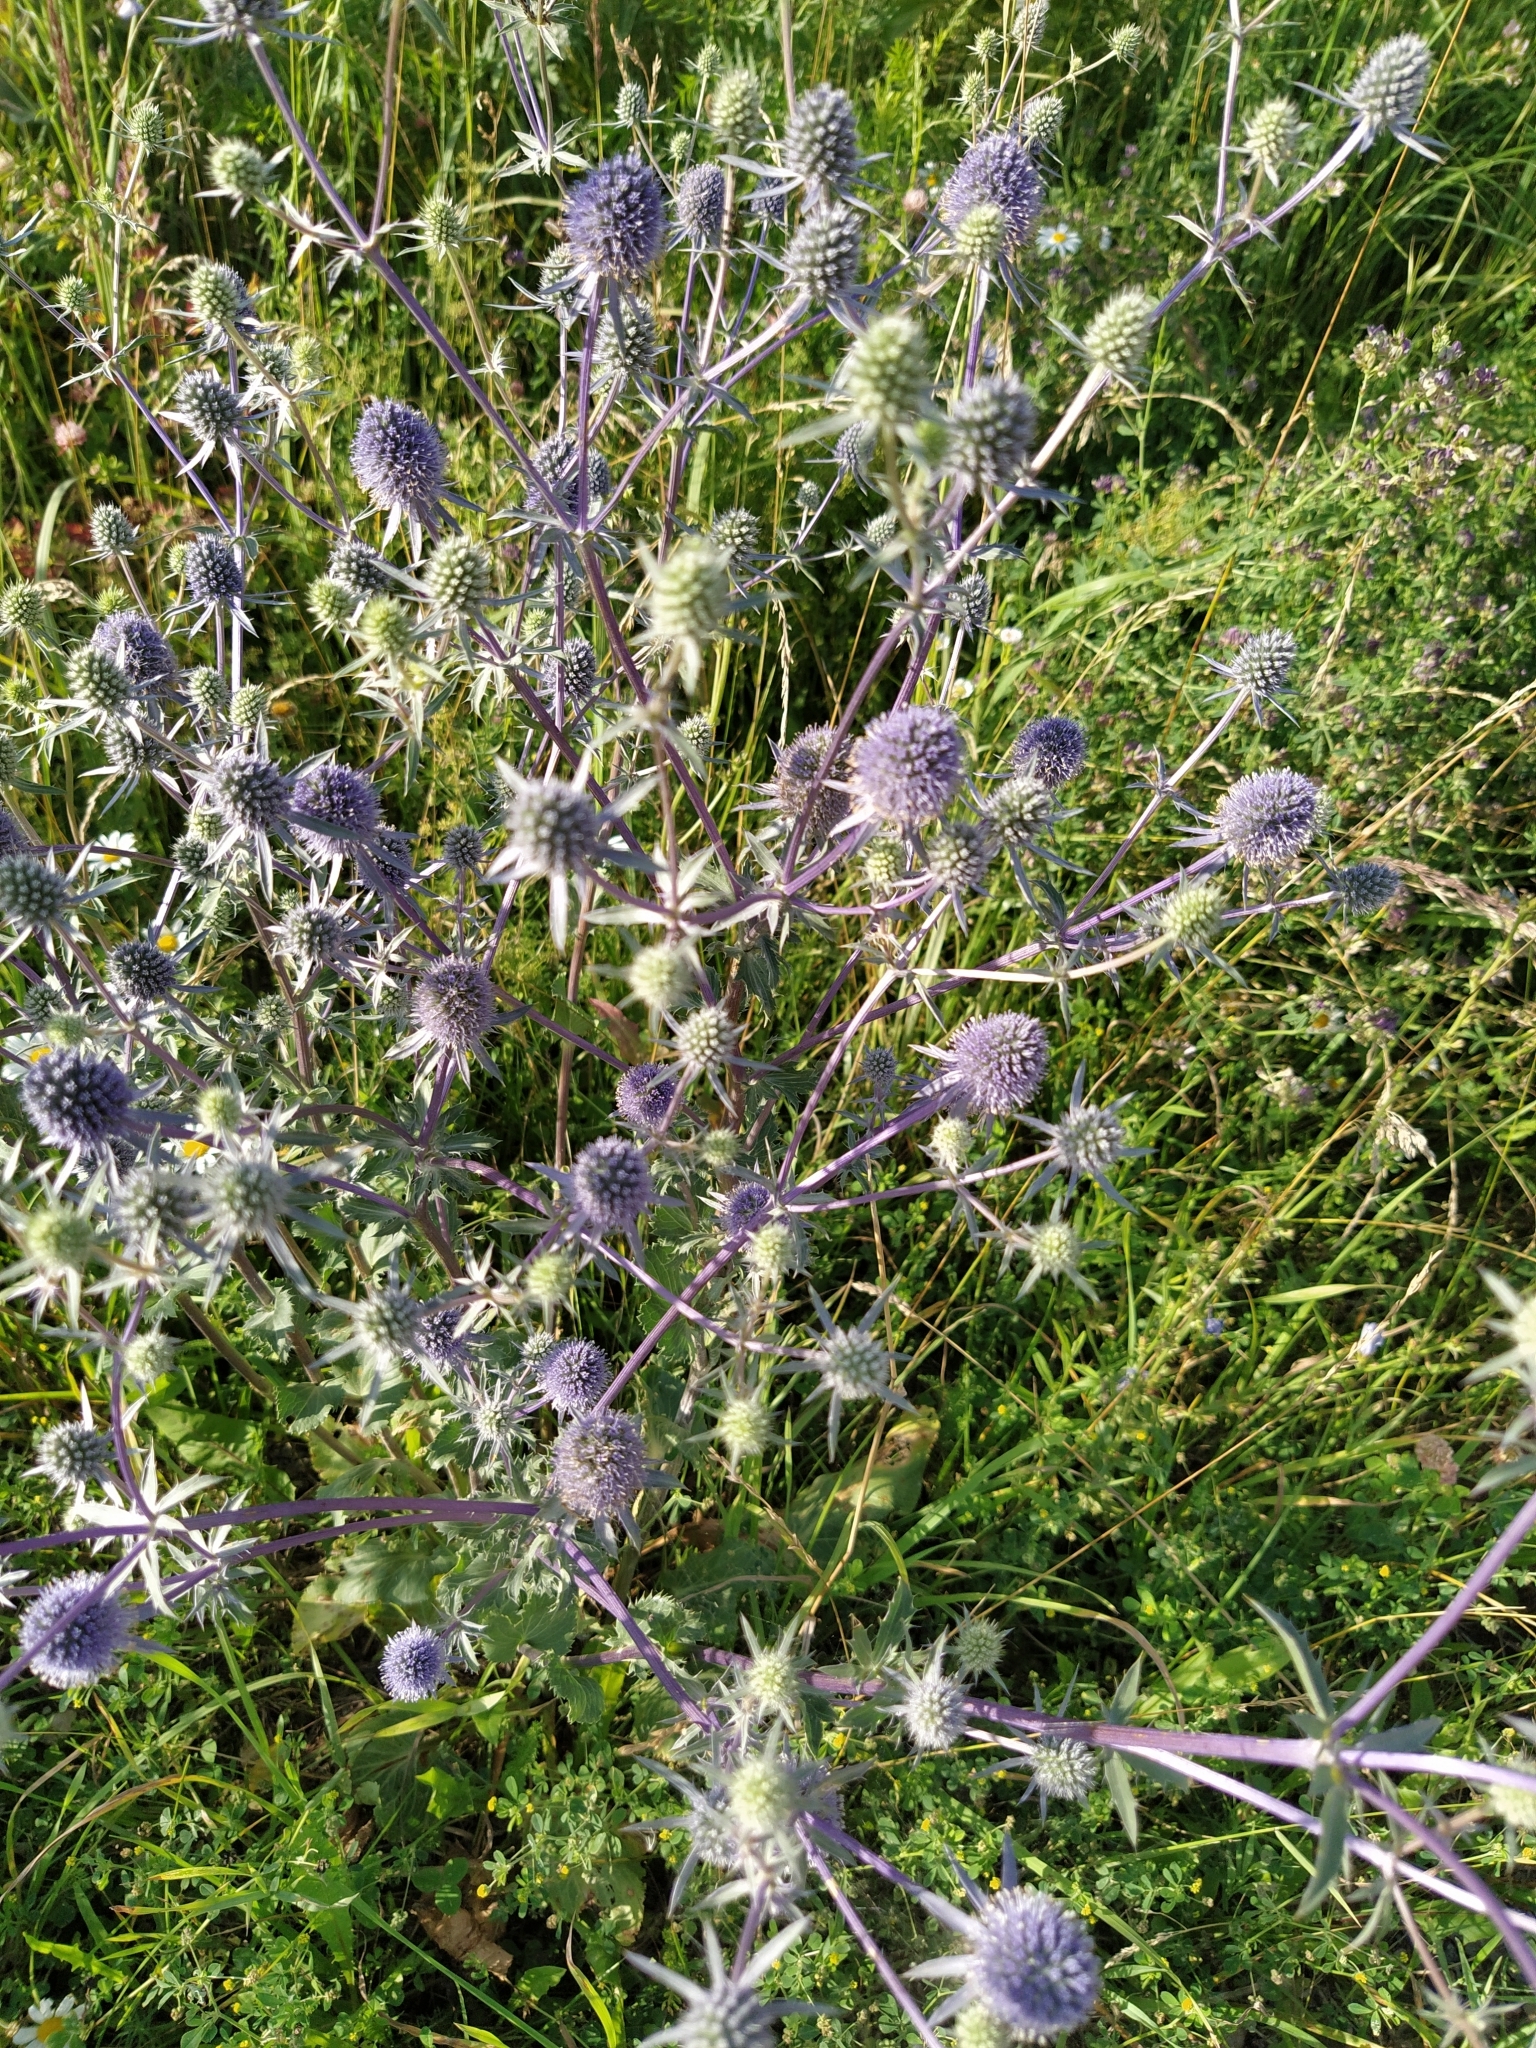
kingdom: Plantae
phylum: Tracheophyta
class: Magnoliopsida
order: Apiales
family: Apiaceae
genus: Eryngium
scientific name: Eryngium planum
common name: Blue eryngo
